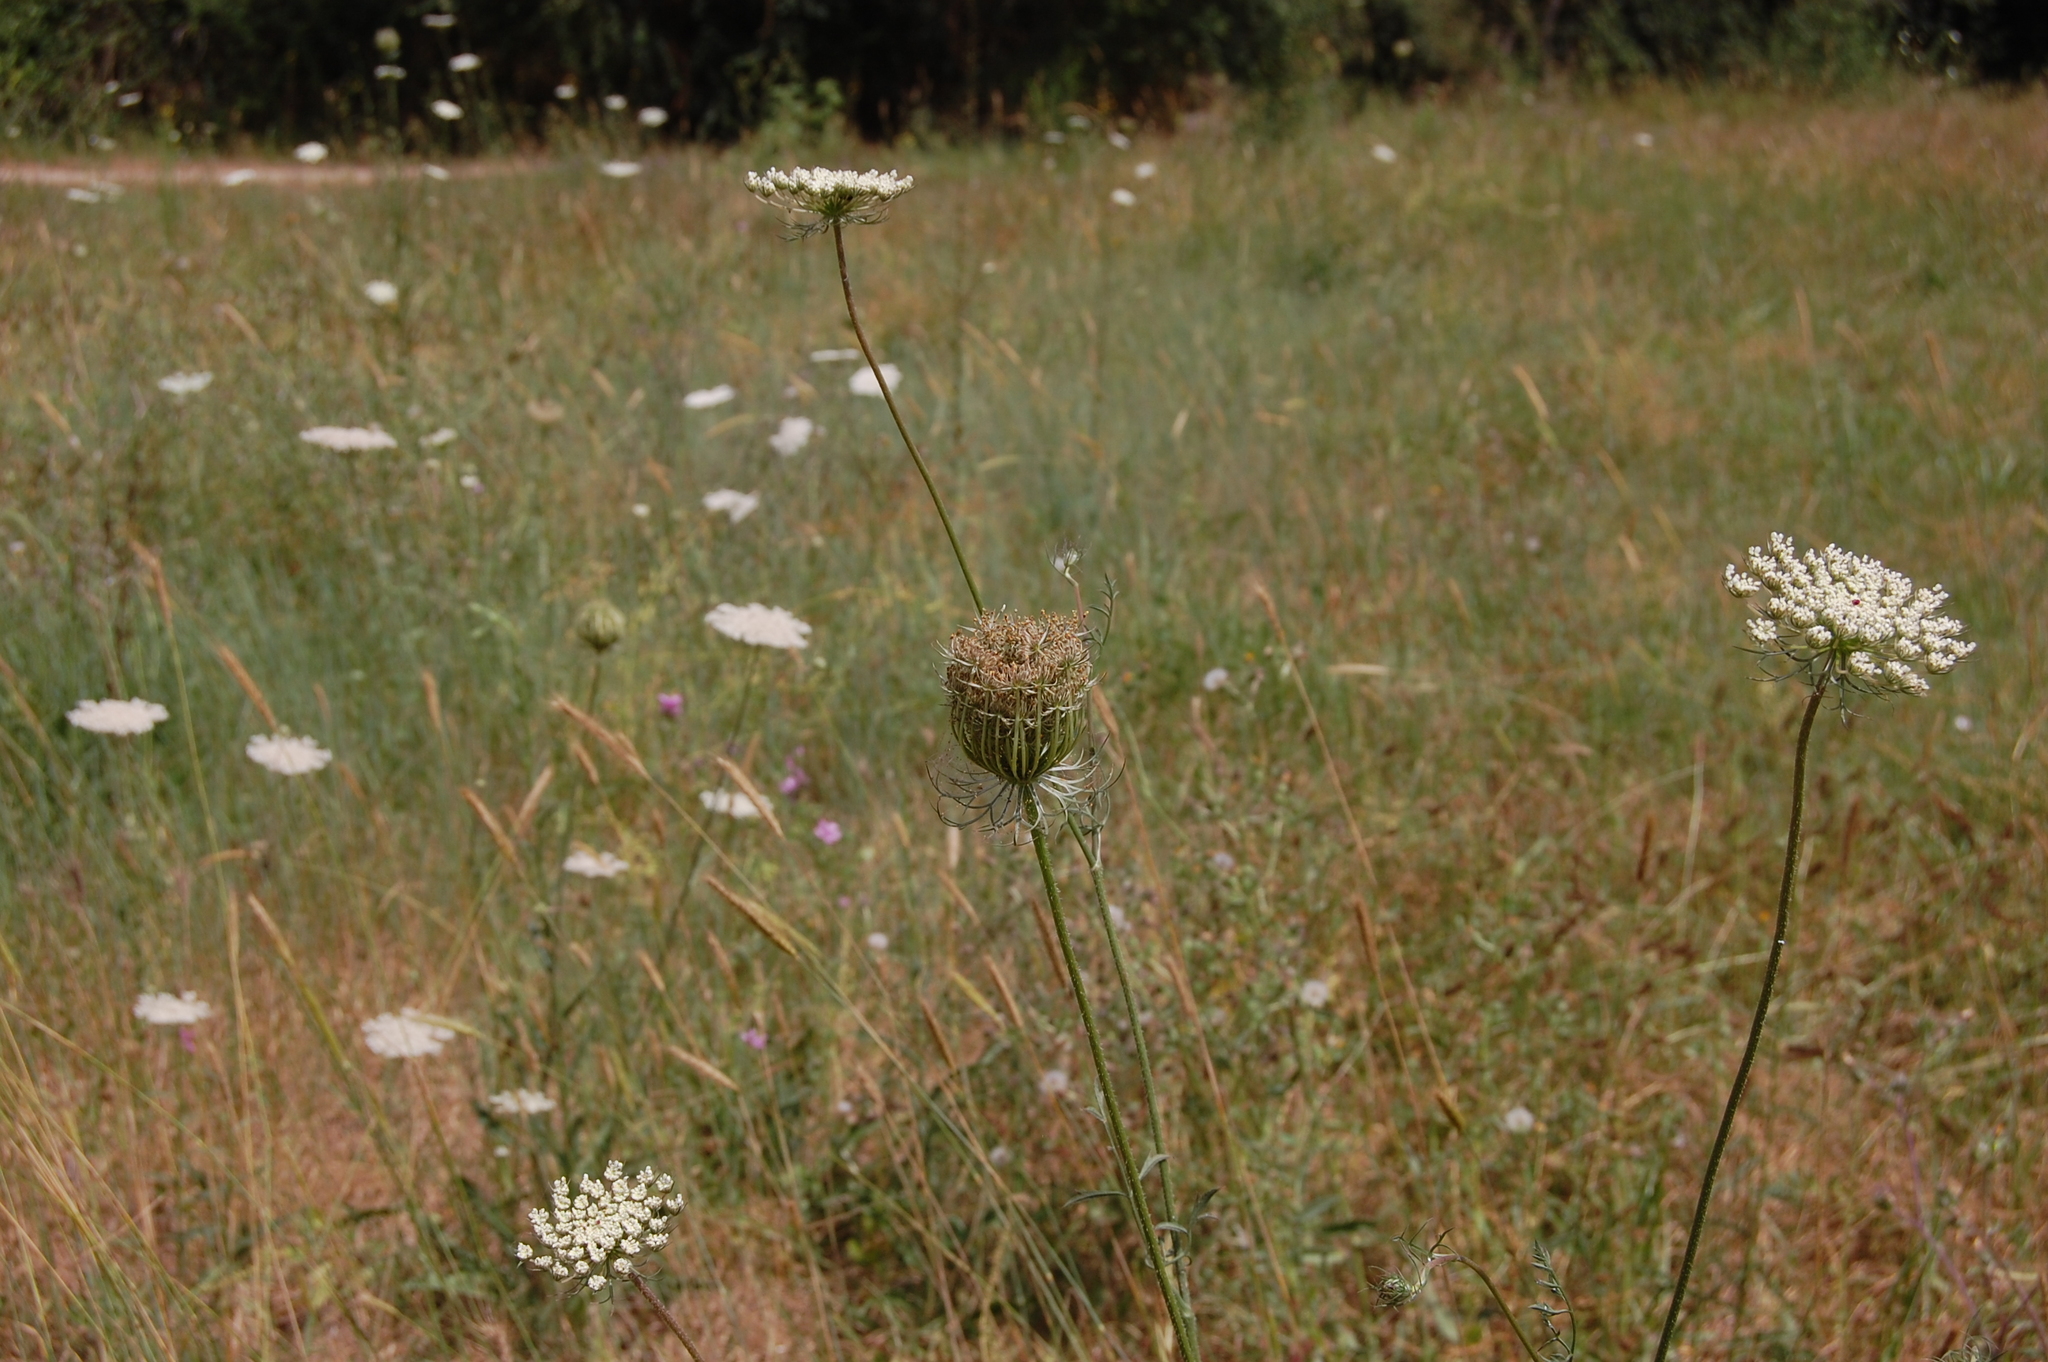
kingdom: Plantae
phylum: Tracheophyta
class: Magnoliopsida
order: Apiales
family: Apiaceae
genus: Daucus
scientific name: Daucus carota
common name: Wild carrot
